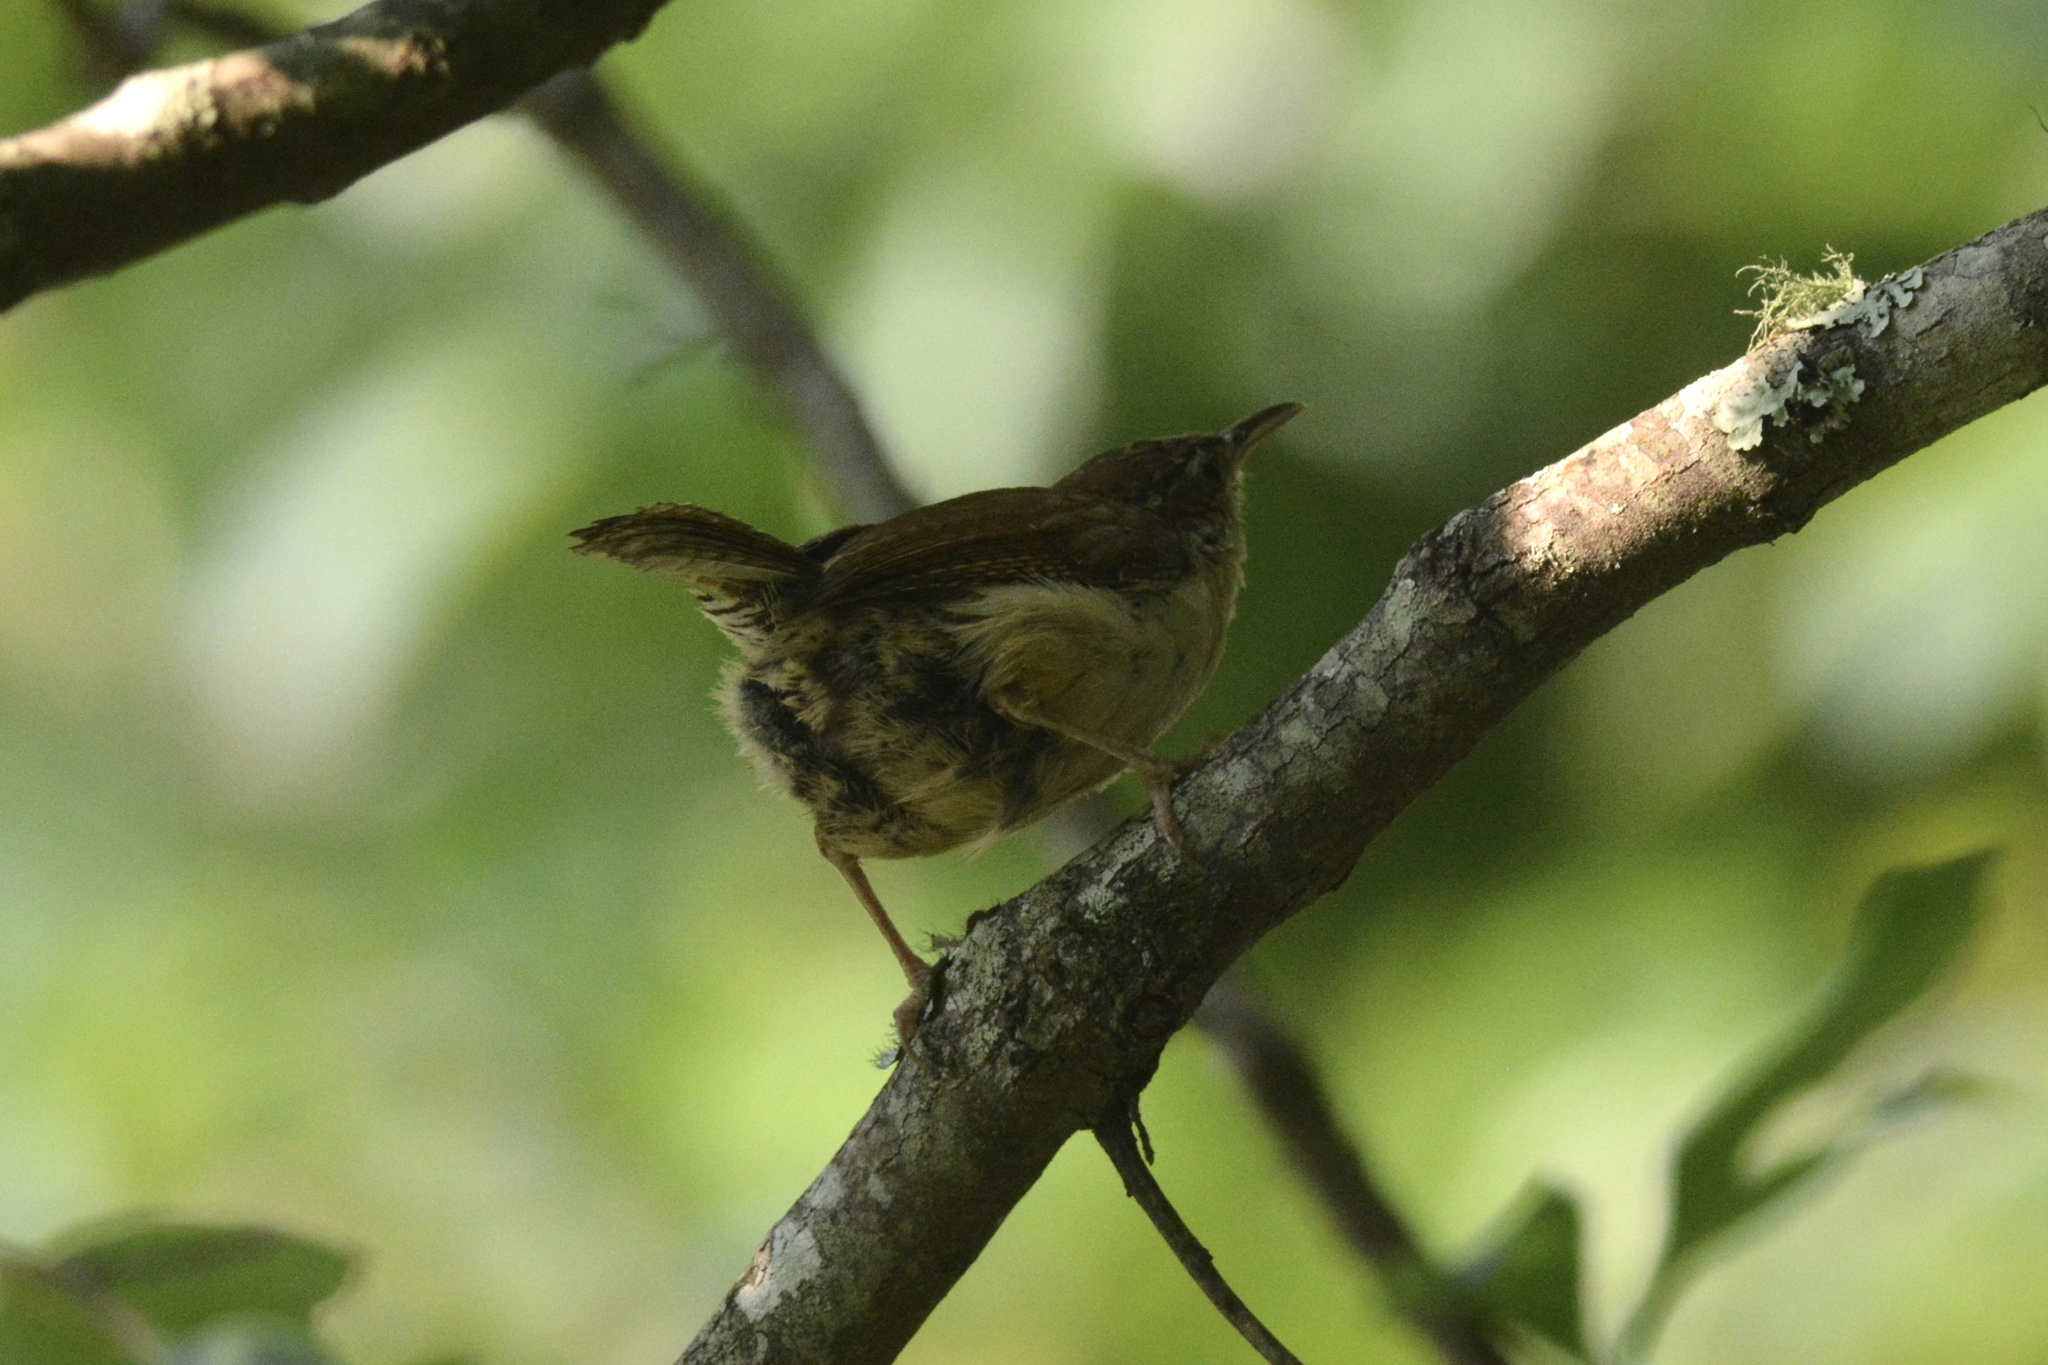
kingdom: Animalia
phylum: Chordata
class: Aves
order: Passeriformes
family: Troglodytidae
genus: Thryothorus
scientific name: Thryothorus ludovicianus
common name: Carolina wren
